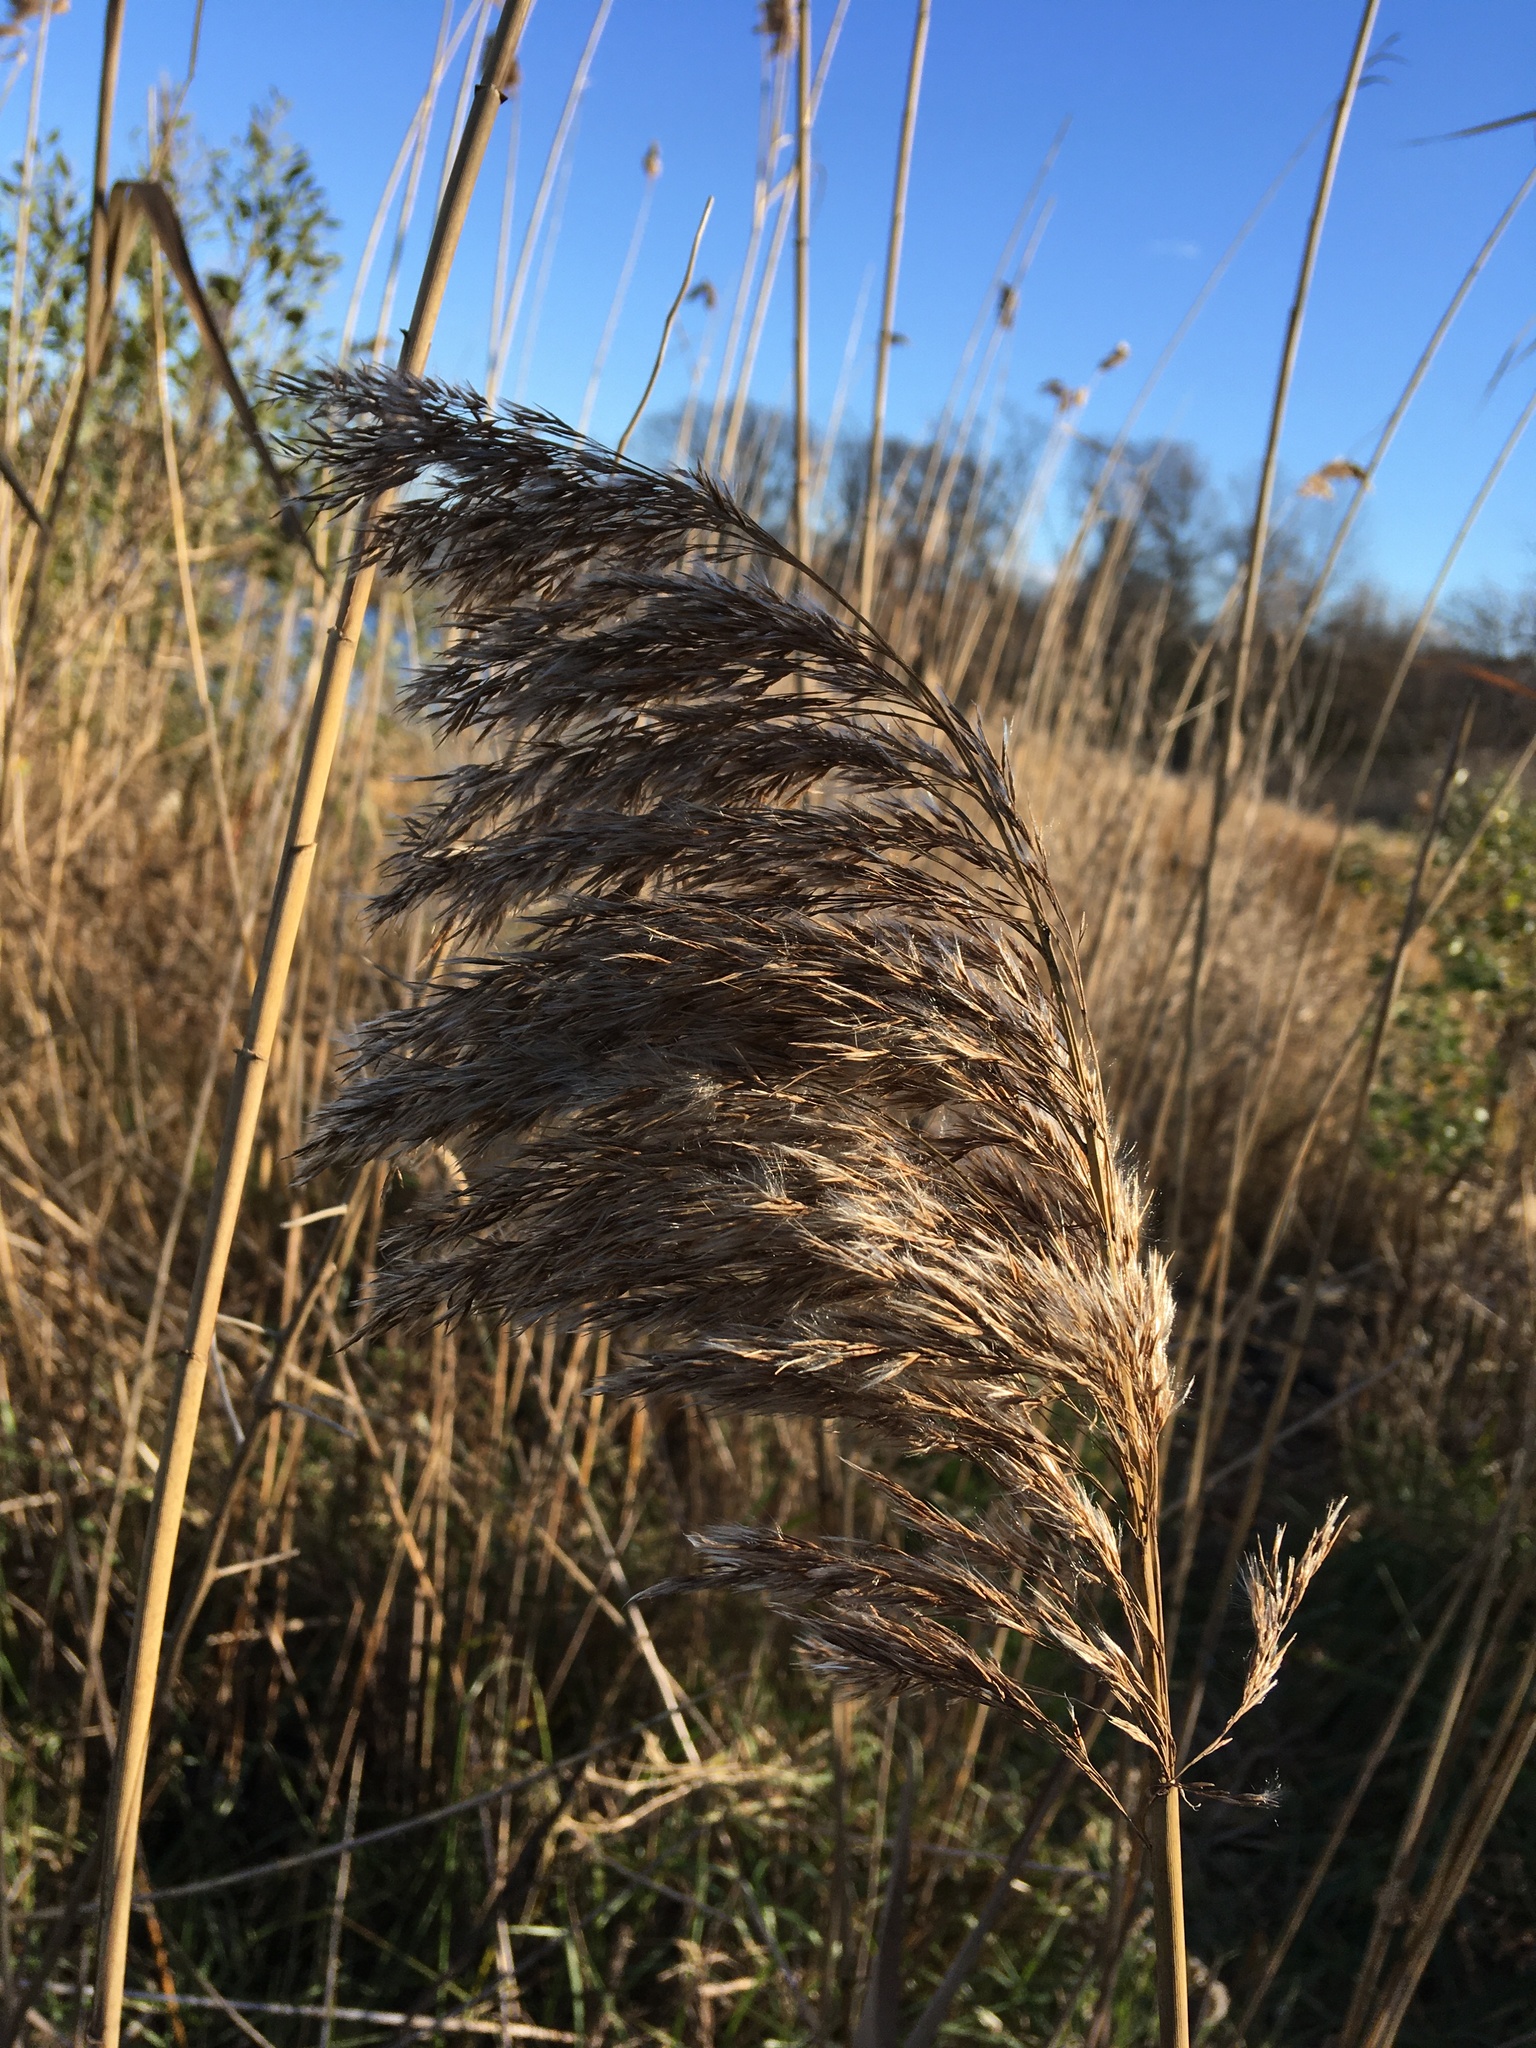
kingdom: Plantae
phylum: Tracheophyta
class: Liliopsida
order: Poales
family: Poaceae
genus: Phragmites
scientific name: Phragmites australis
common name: Common reed
